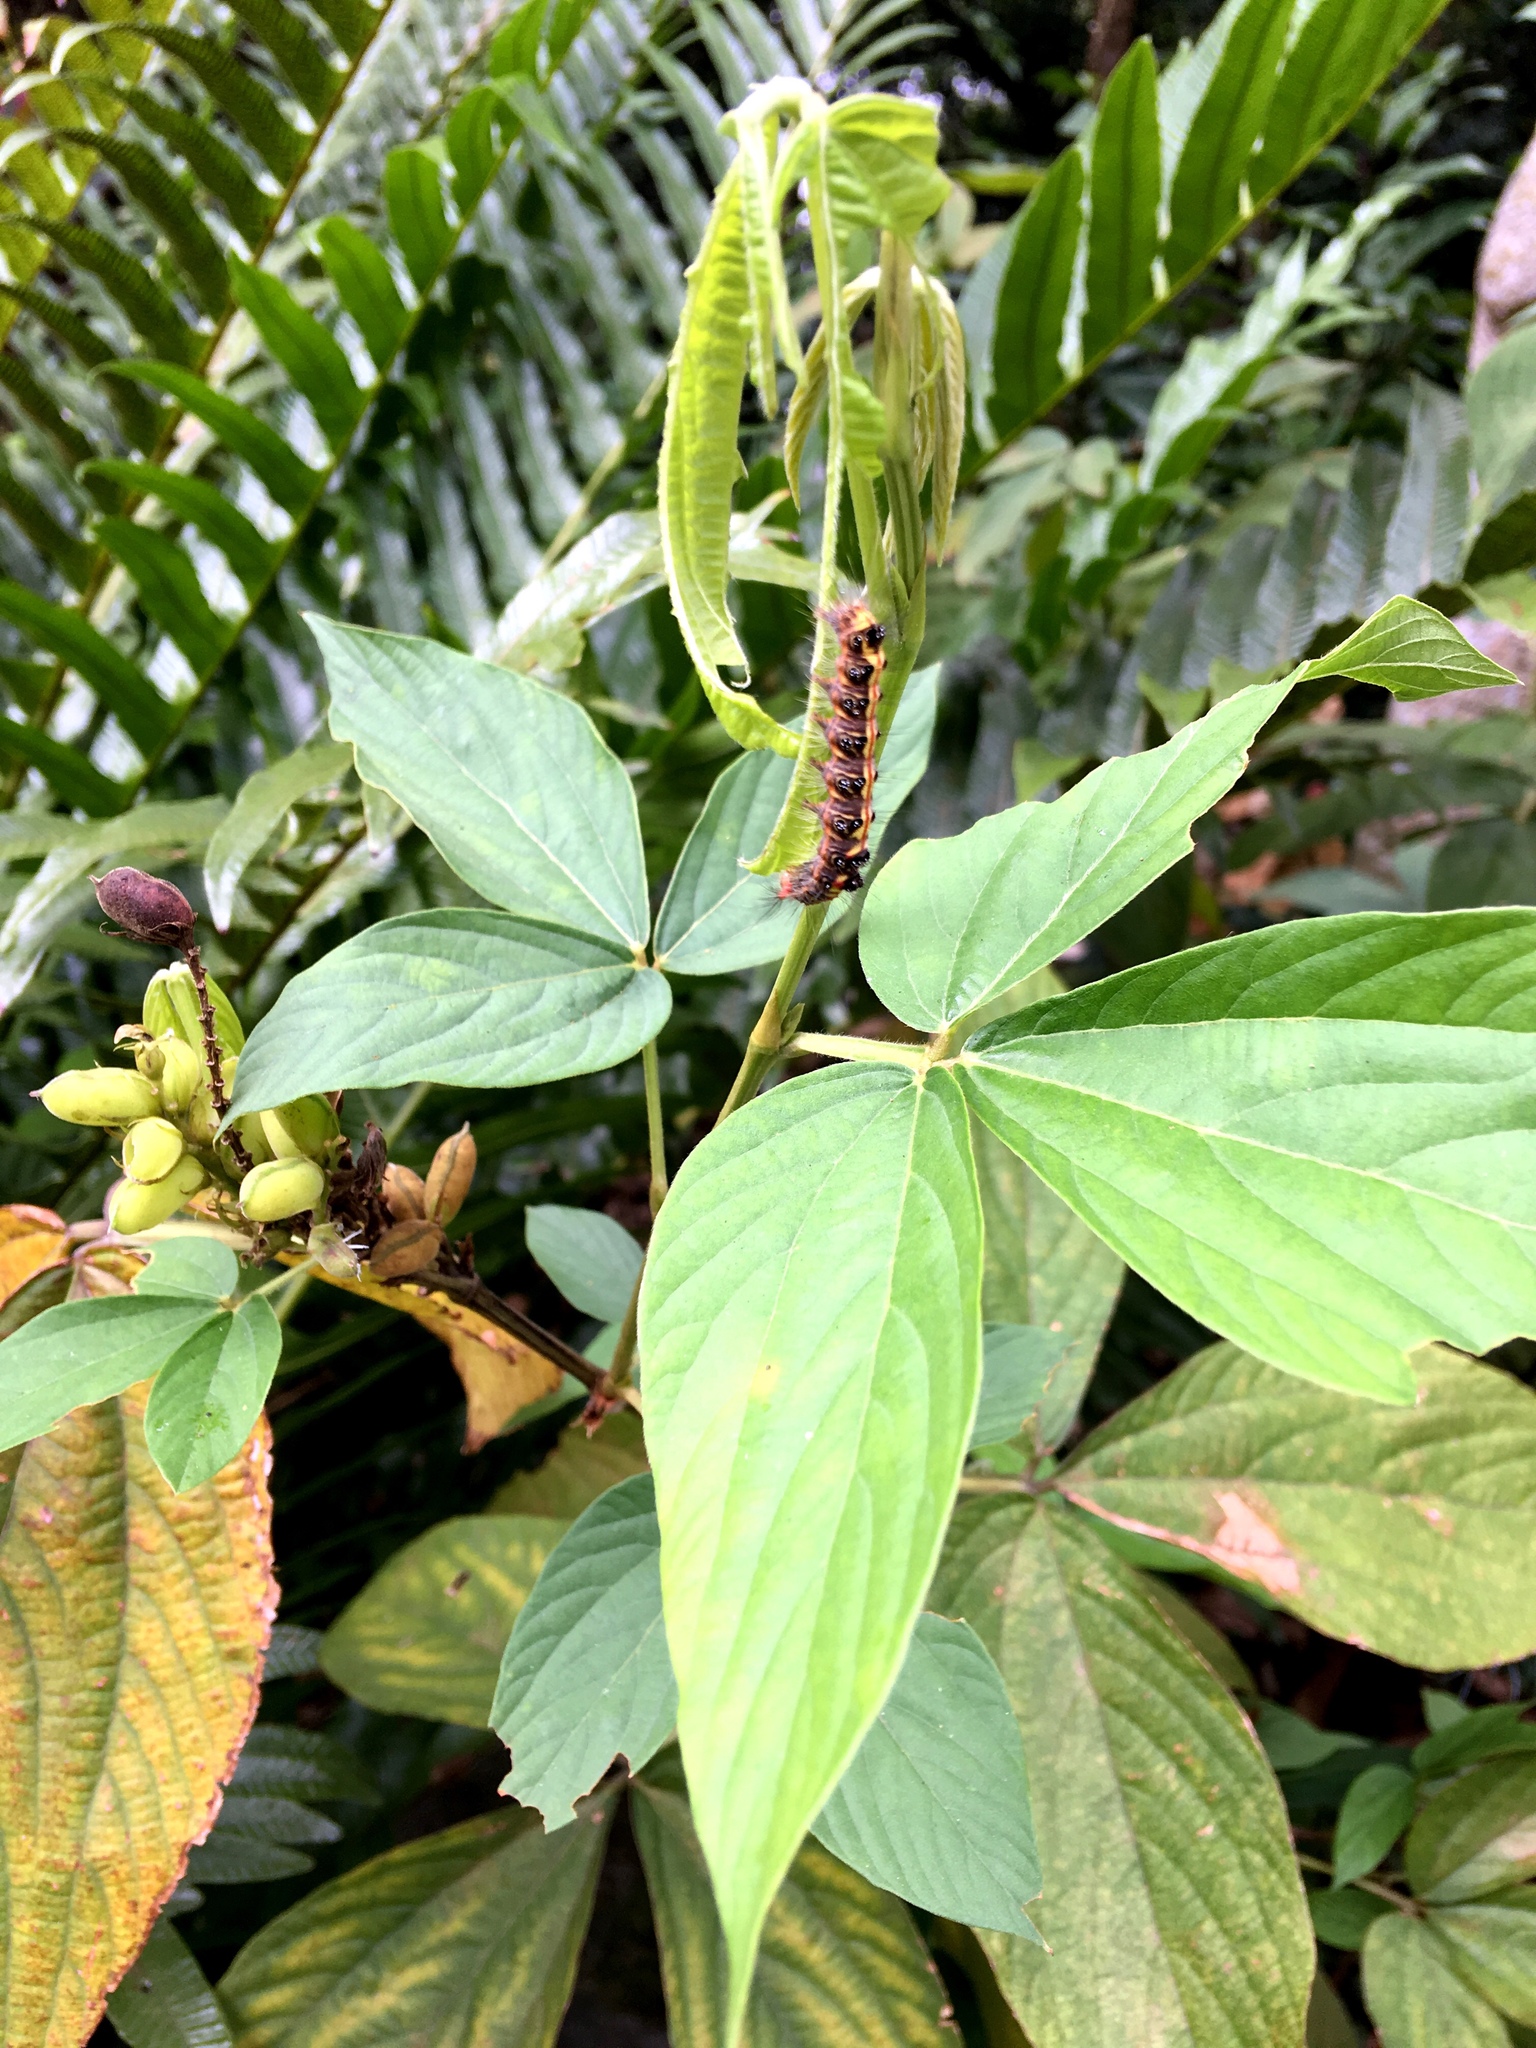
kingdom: Animalia
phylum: Arthropoda
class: Insecta
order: Lepidoptera
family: Erebidae
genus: Orvasca
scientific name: Orvasca subnotata
